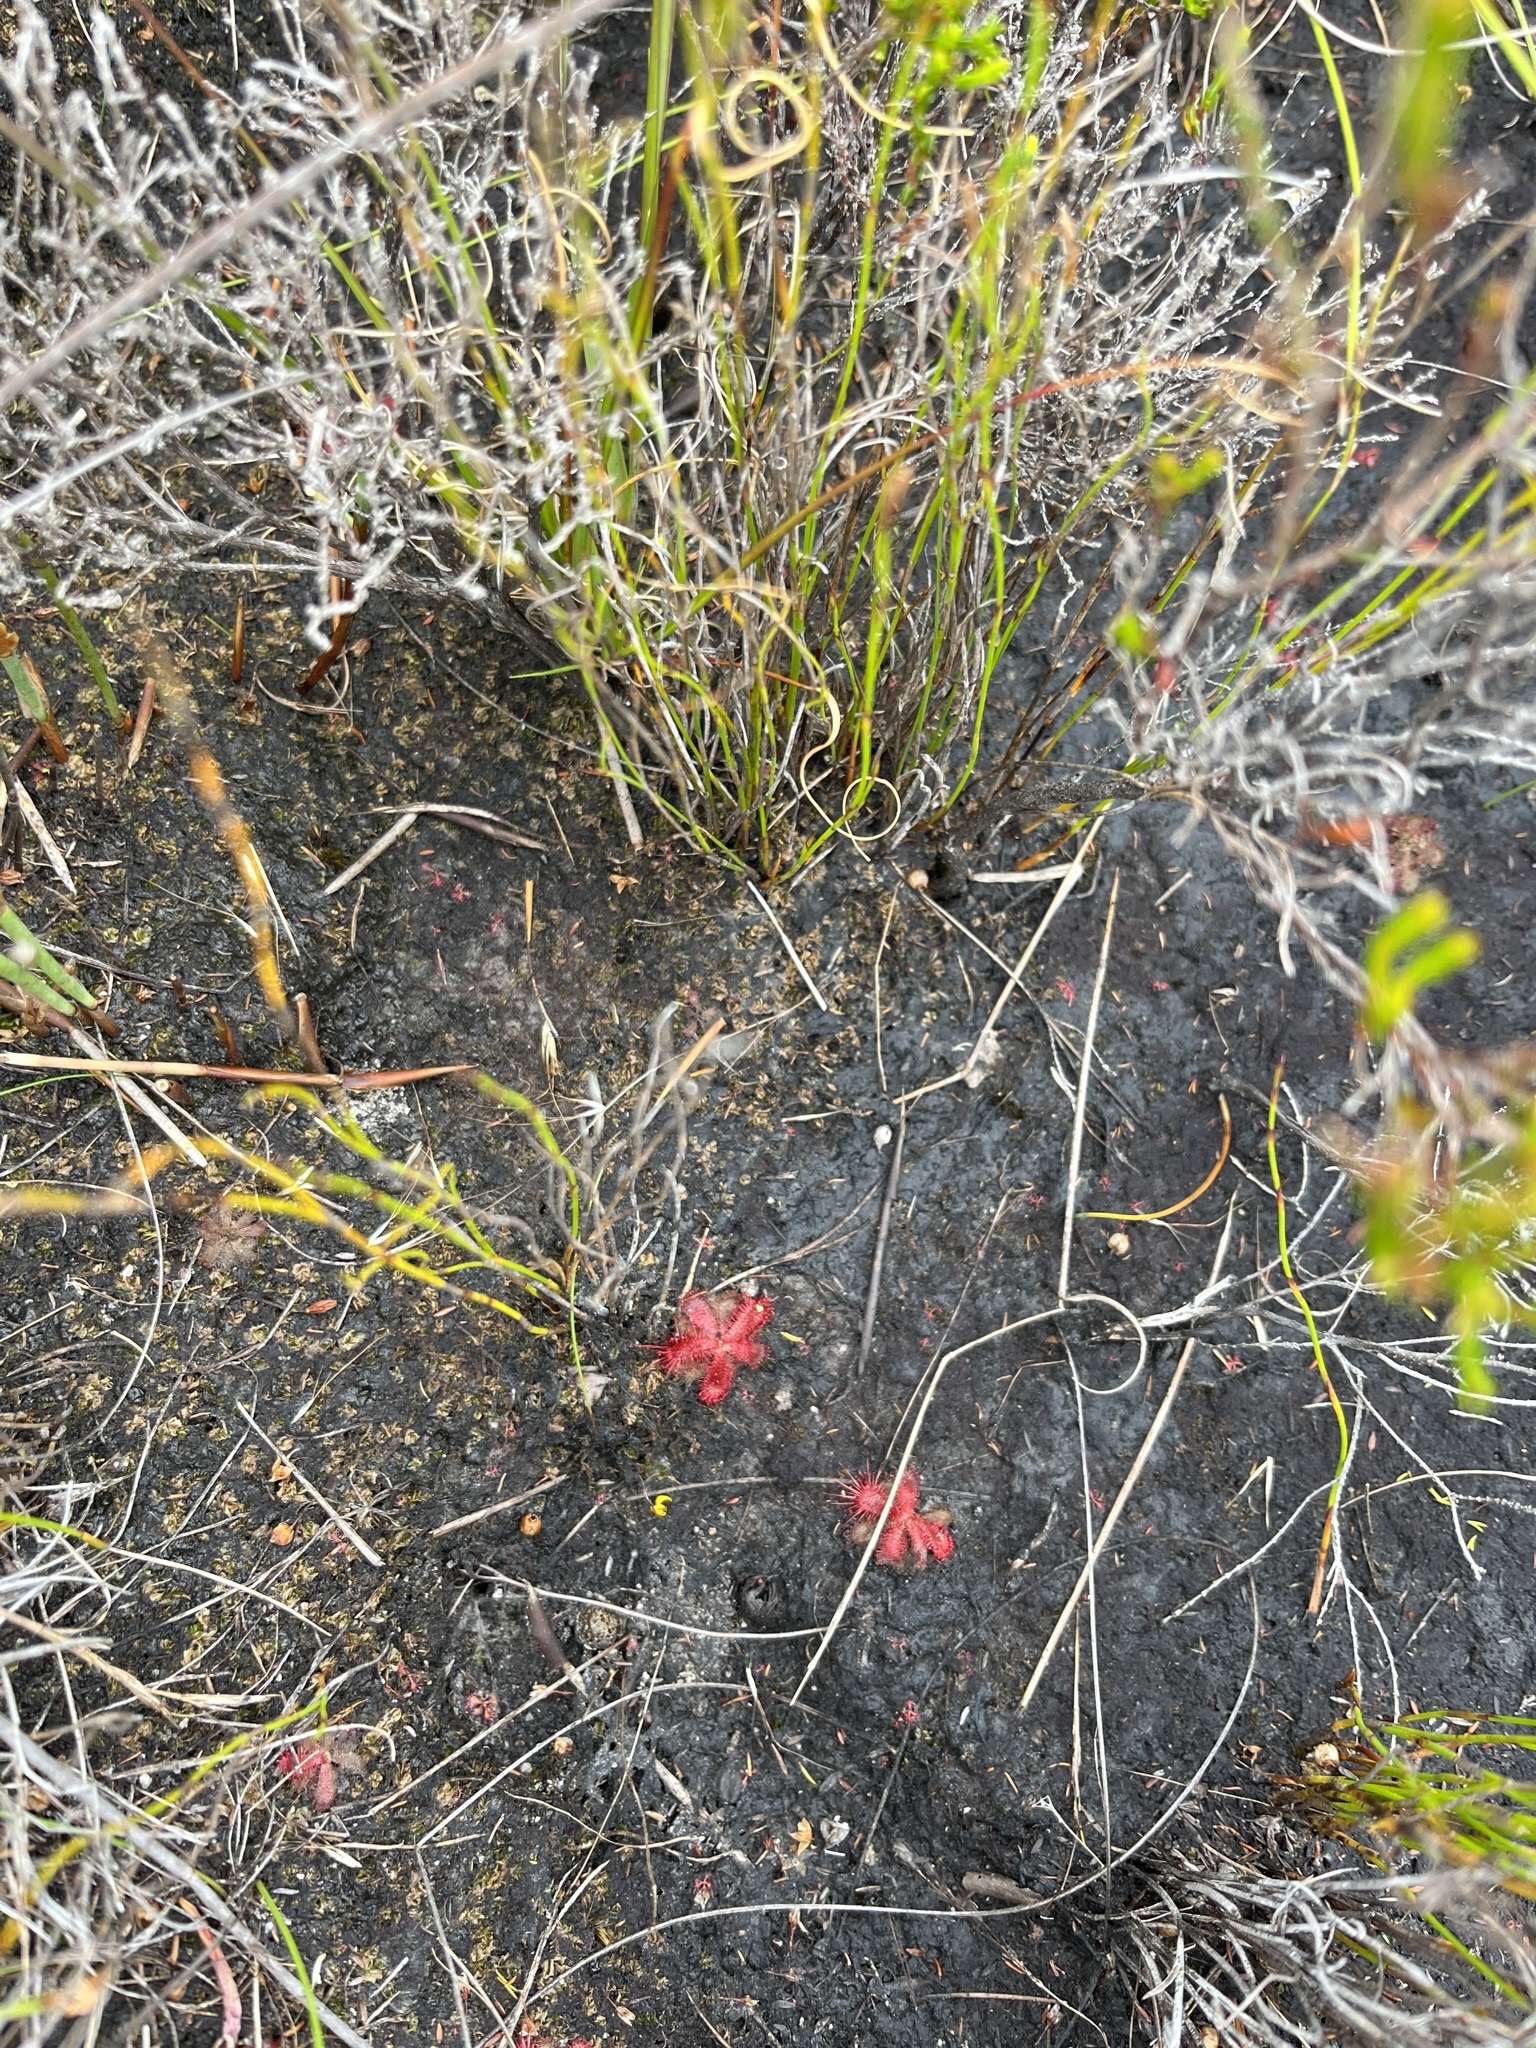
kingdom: Plantae
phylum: Tracheophyta
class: Magnoliopsida
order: Caryophyllales
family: Droseraceae
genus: Drosera
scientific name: Drosera trinervia
